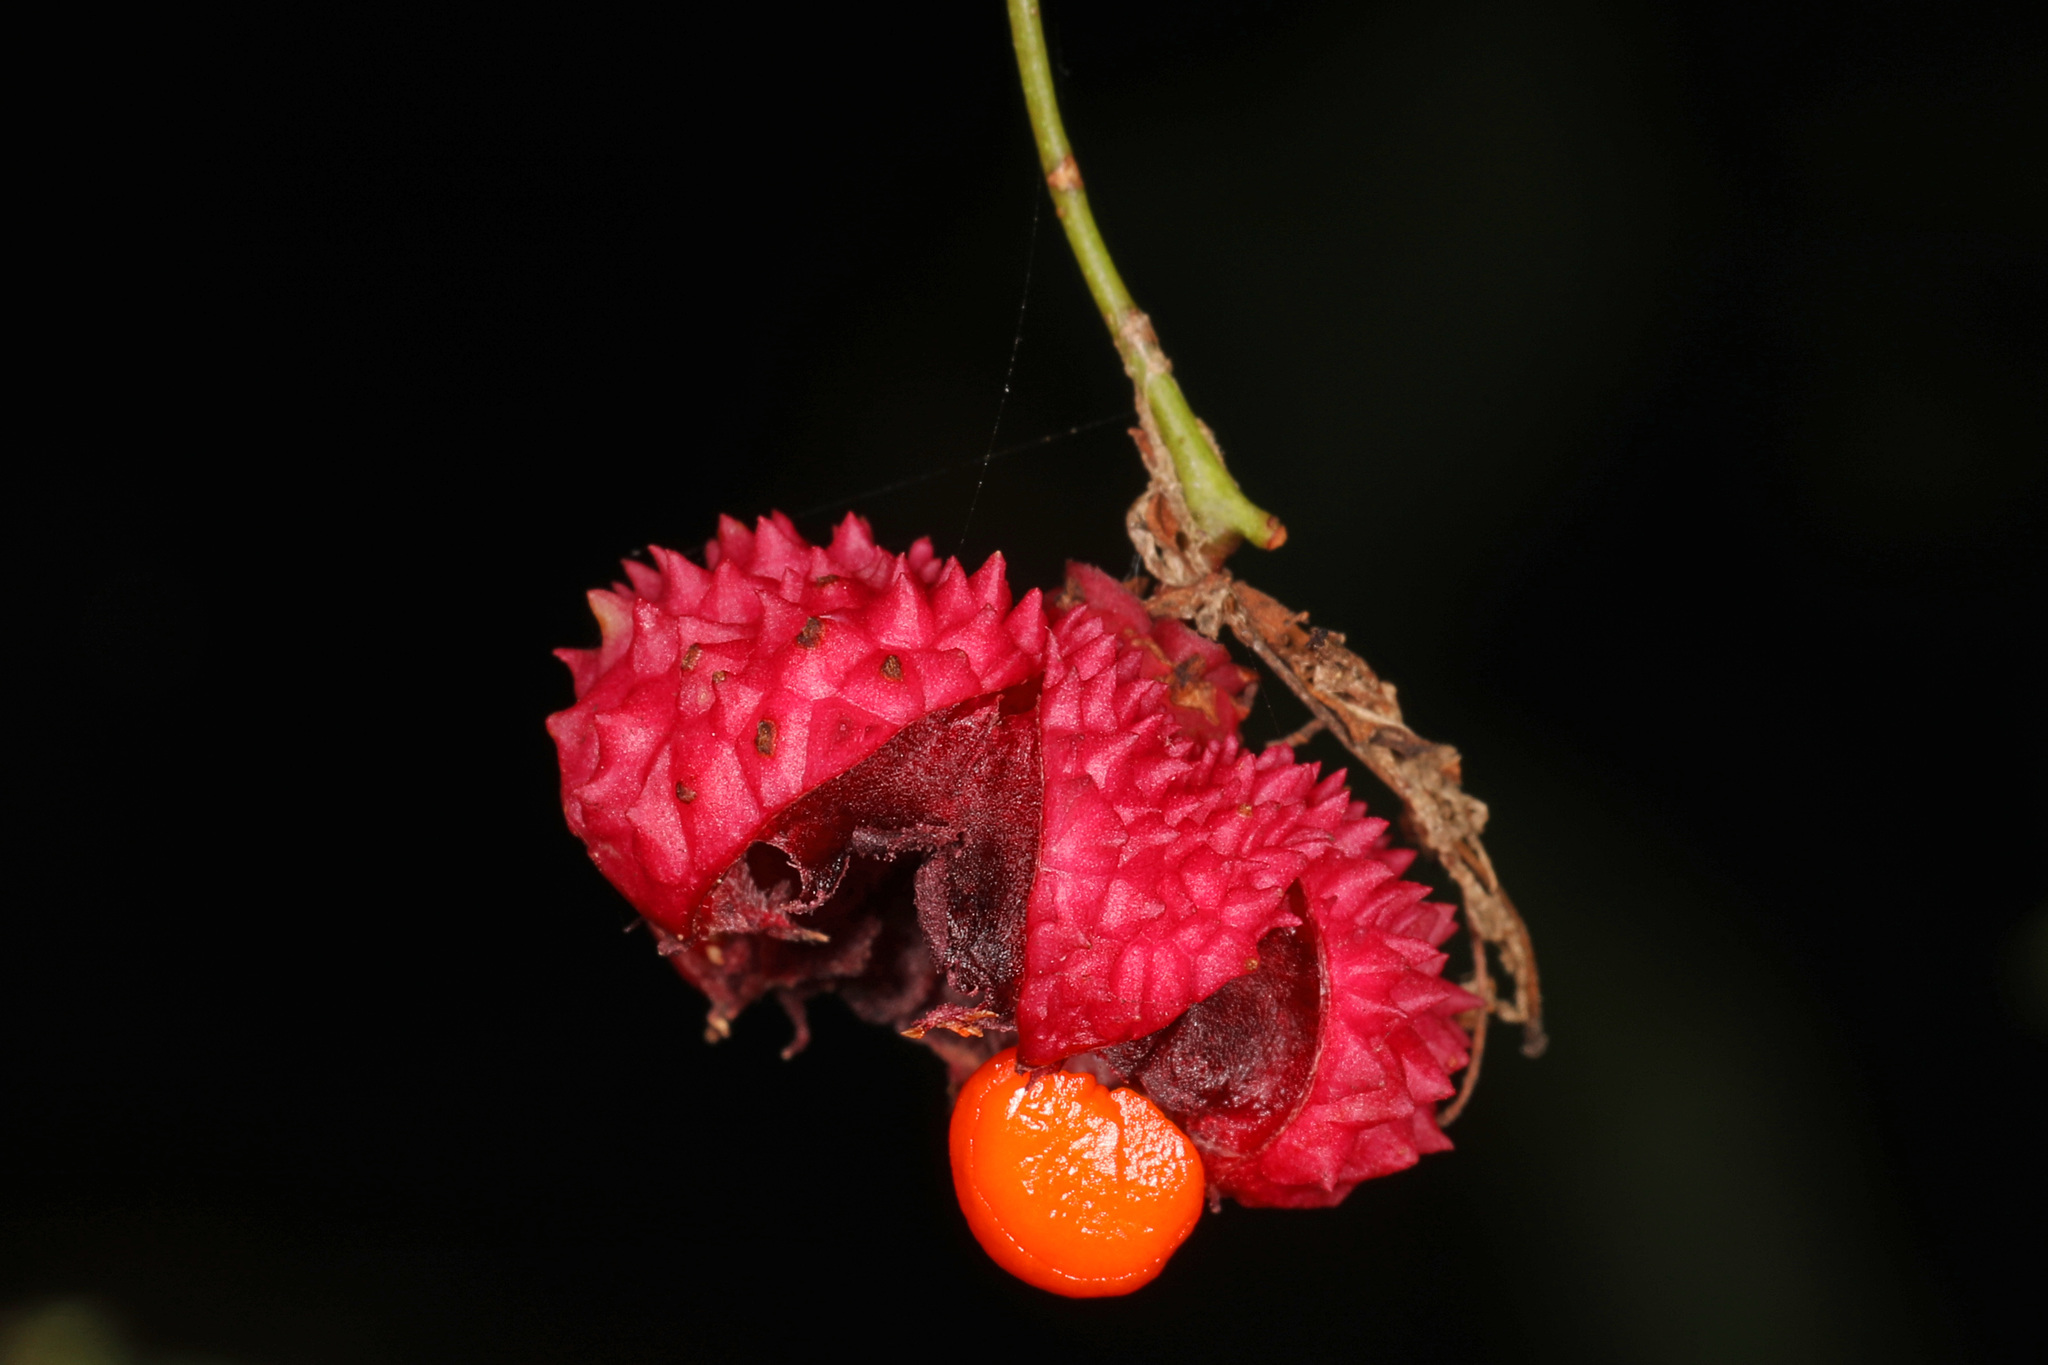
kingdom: Plantae
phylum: Tracheophyta
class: Magnoliopsida
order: Celastrales
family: Celastraceae
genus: Euonymus
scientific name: Euonymus americanus
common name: Bursting-heart
